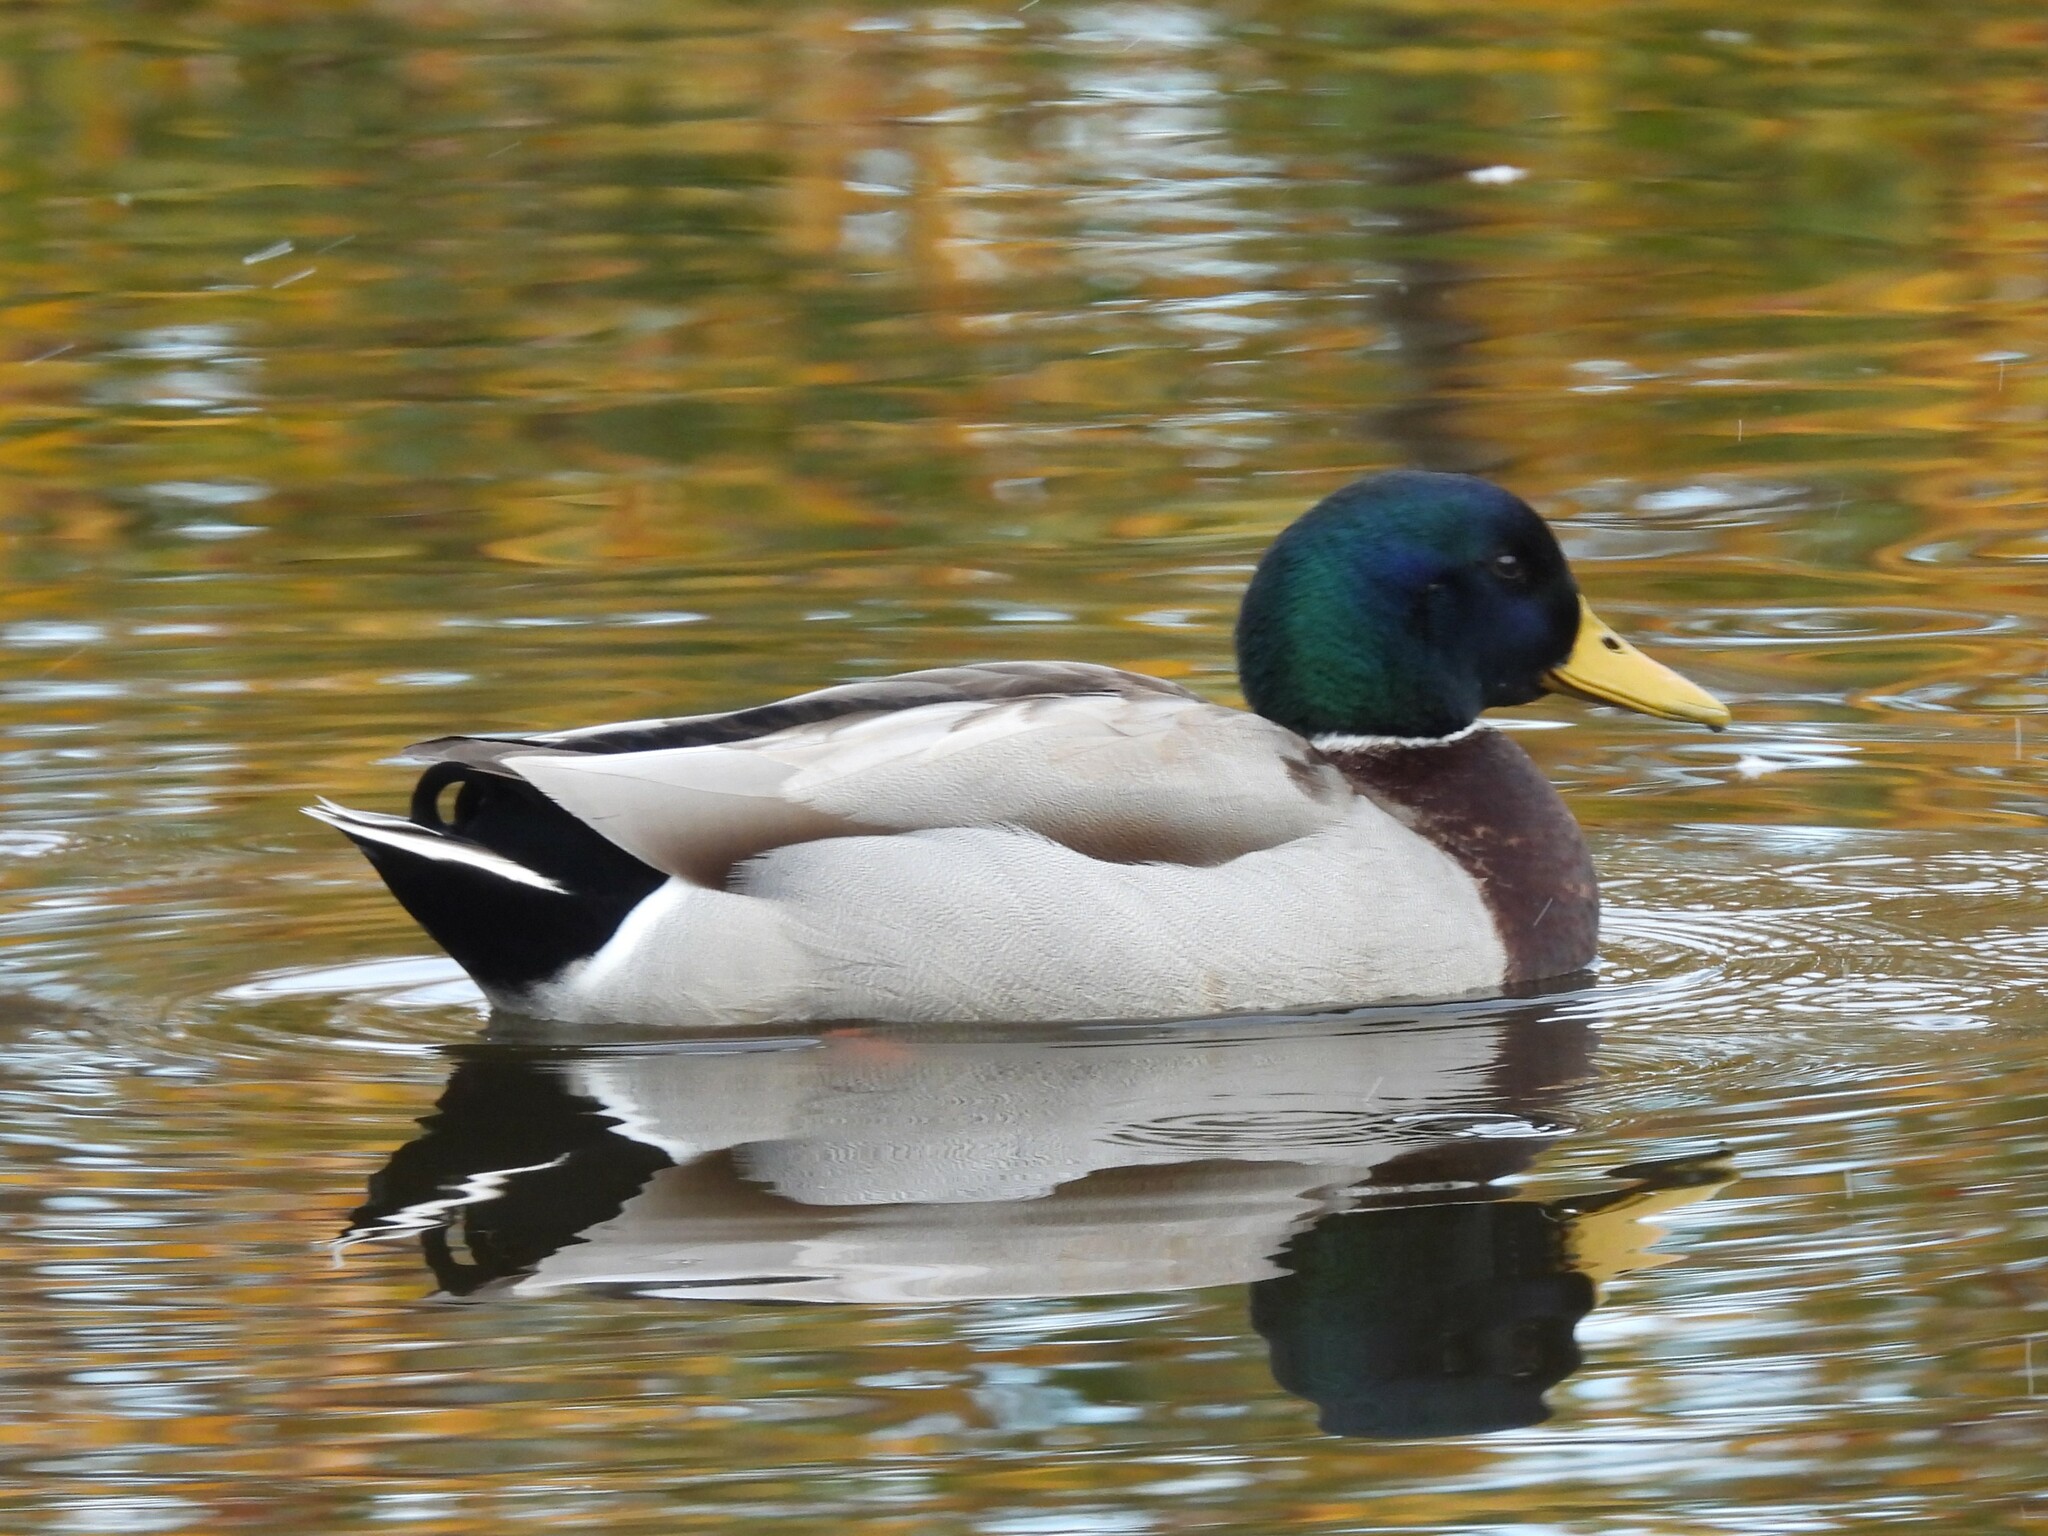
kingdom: Animalia
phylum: Chordata
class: Aves
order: Anseriformes
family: Anatidae
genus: Anas
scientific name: Anas platyrhynchos
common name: Mallard
